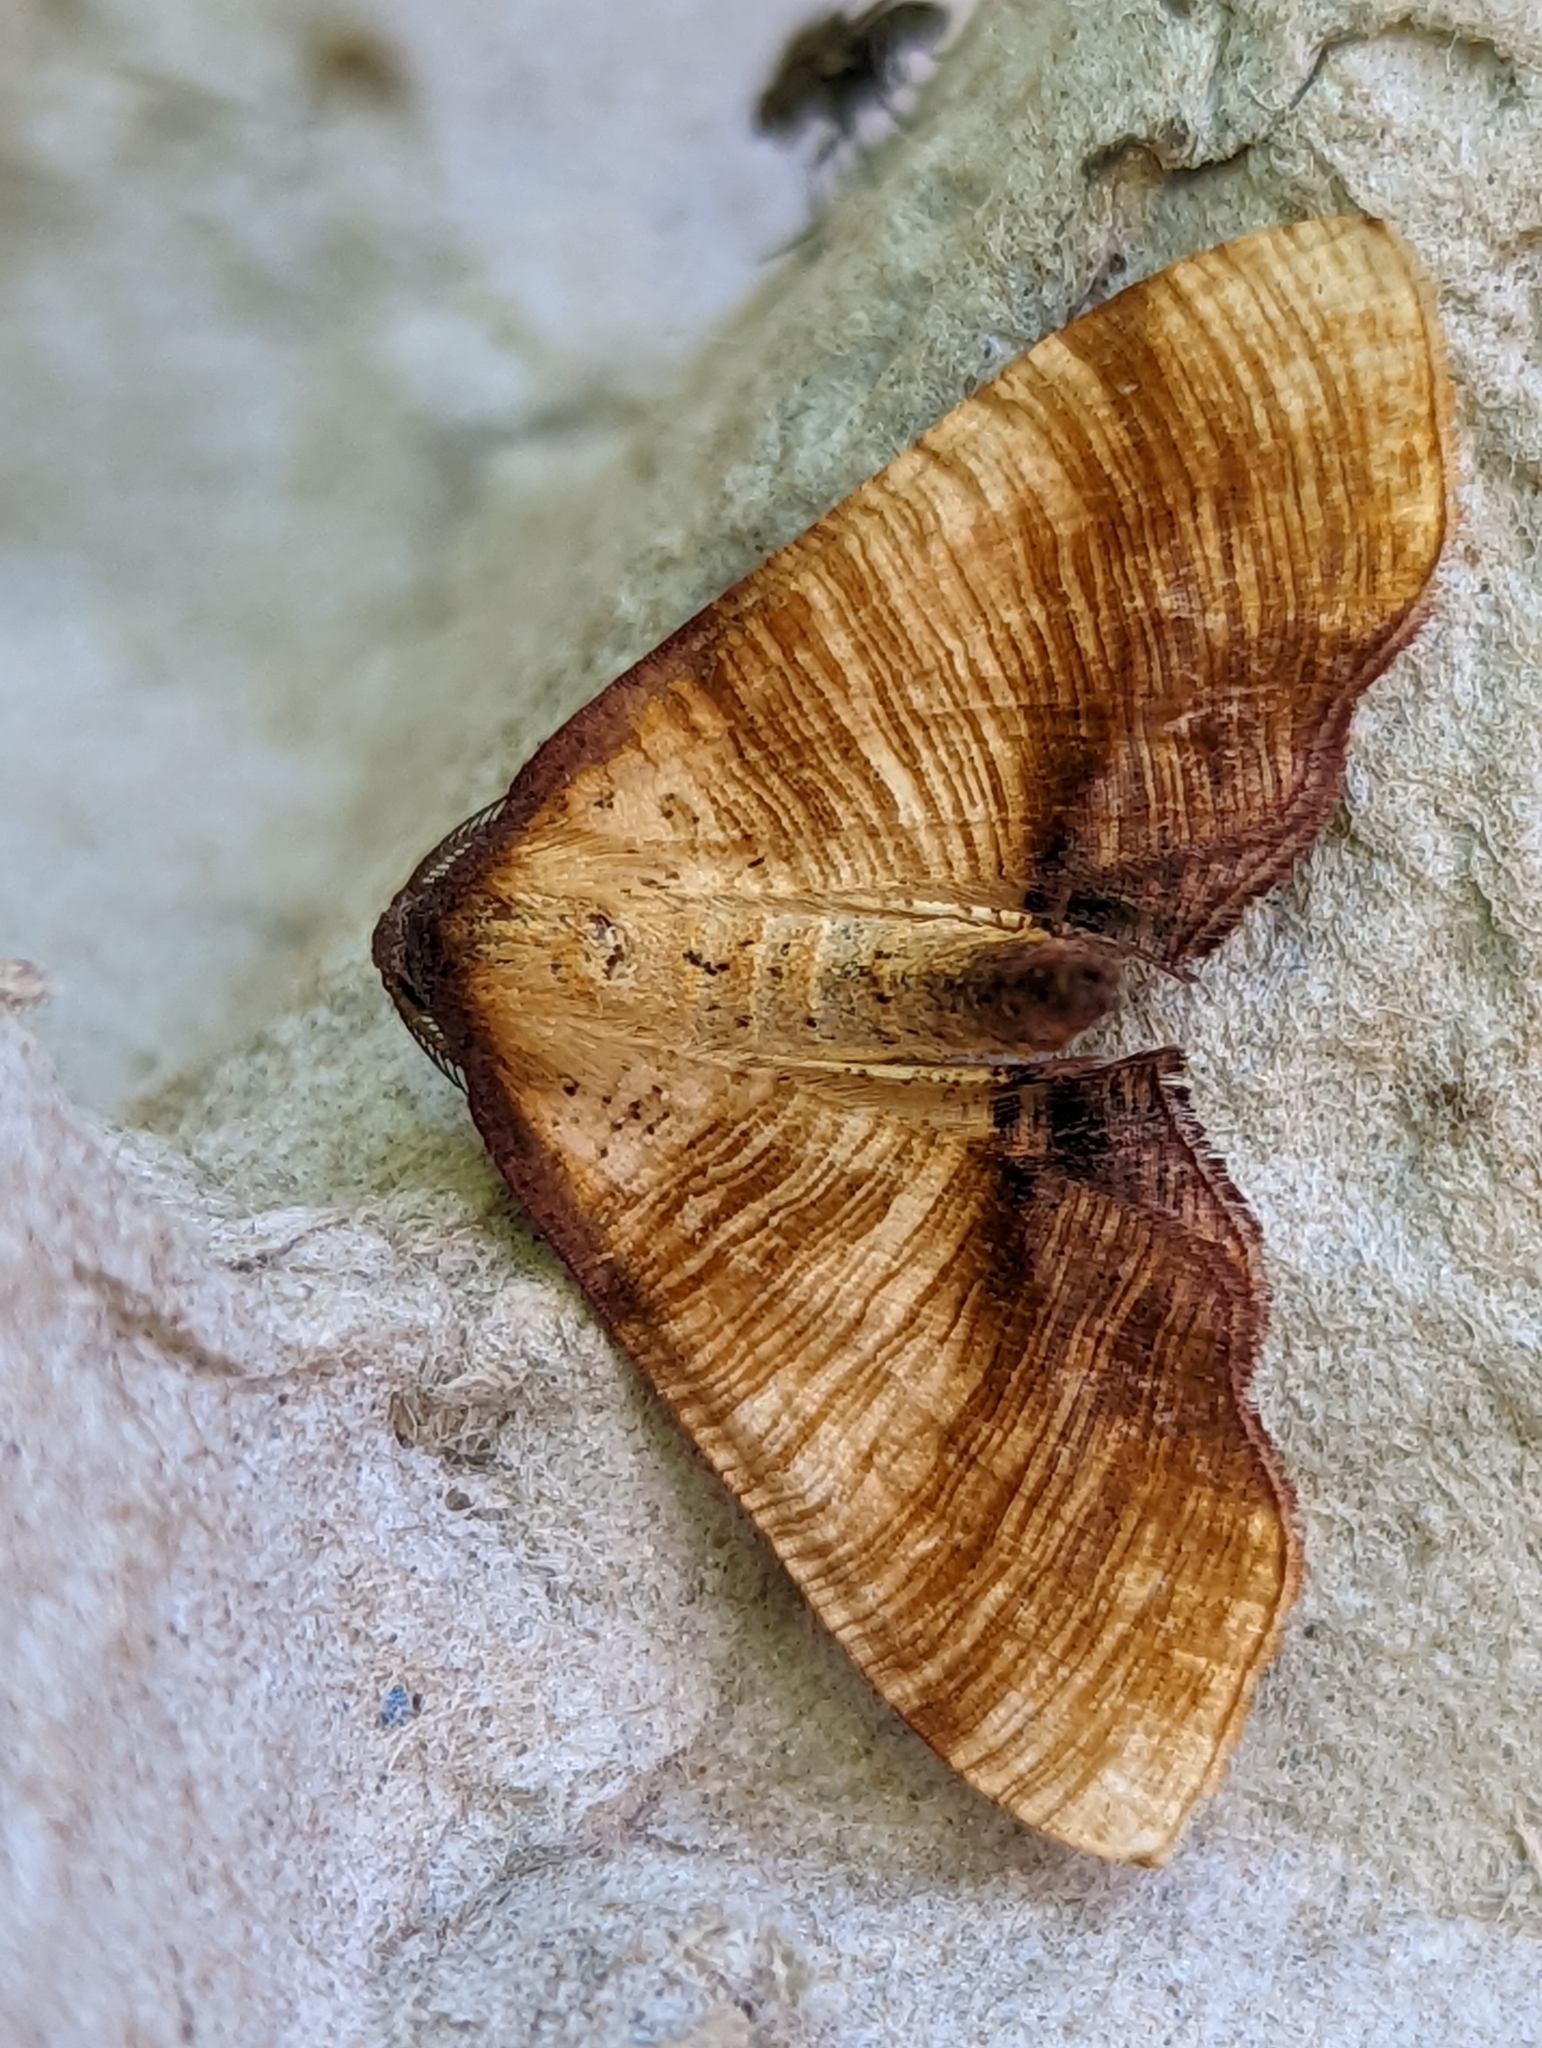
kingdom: Animalia
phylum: Arthropoda
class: Insecta
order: Lepidoptera
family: Geometridae
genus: Plagodis
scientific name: Plagodis dolabraria
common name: Scorched wing
